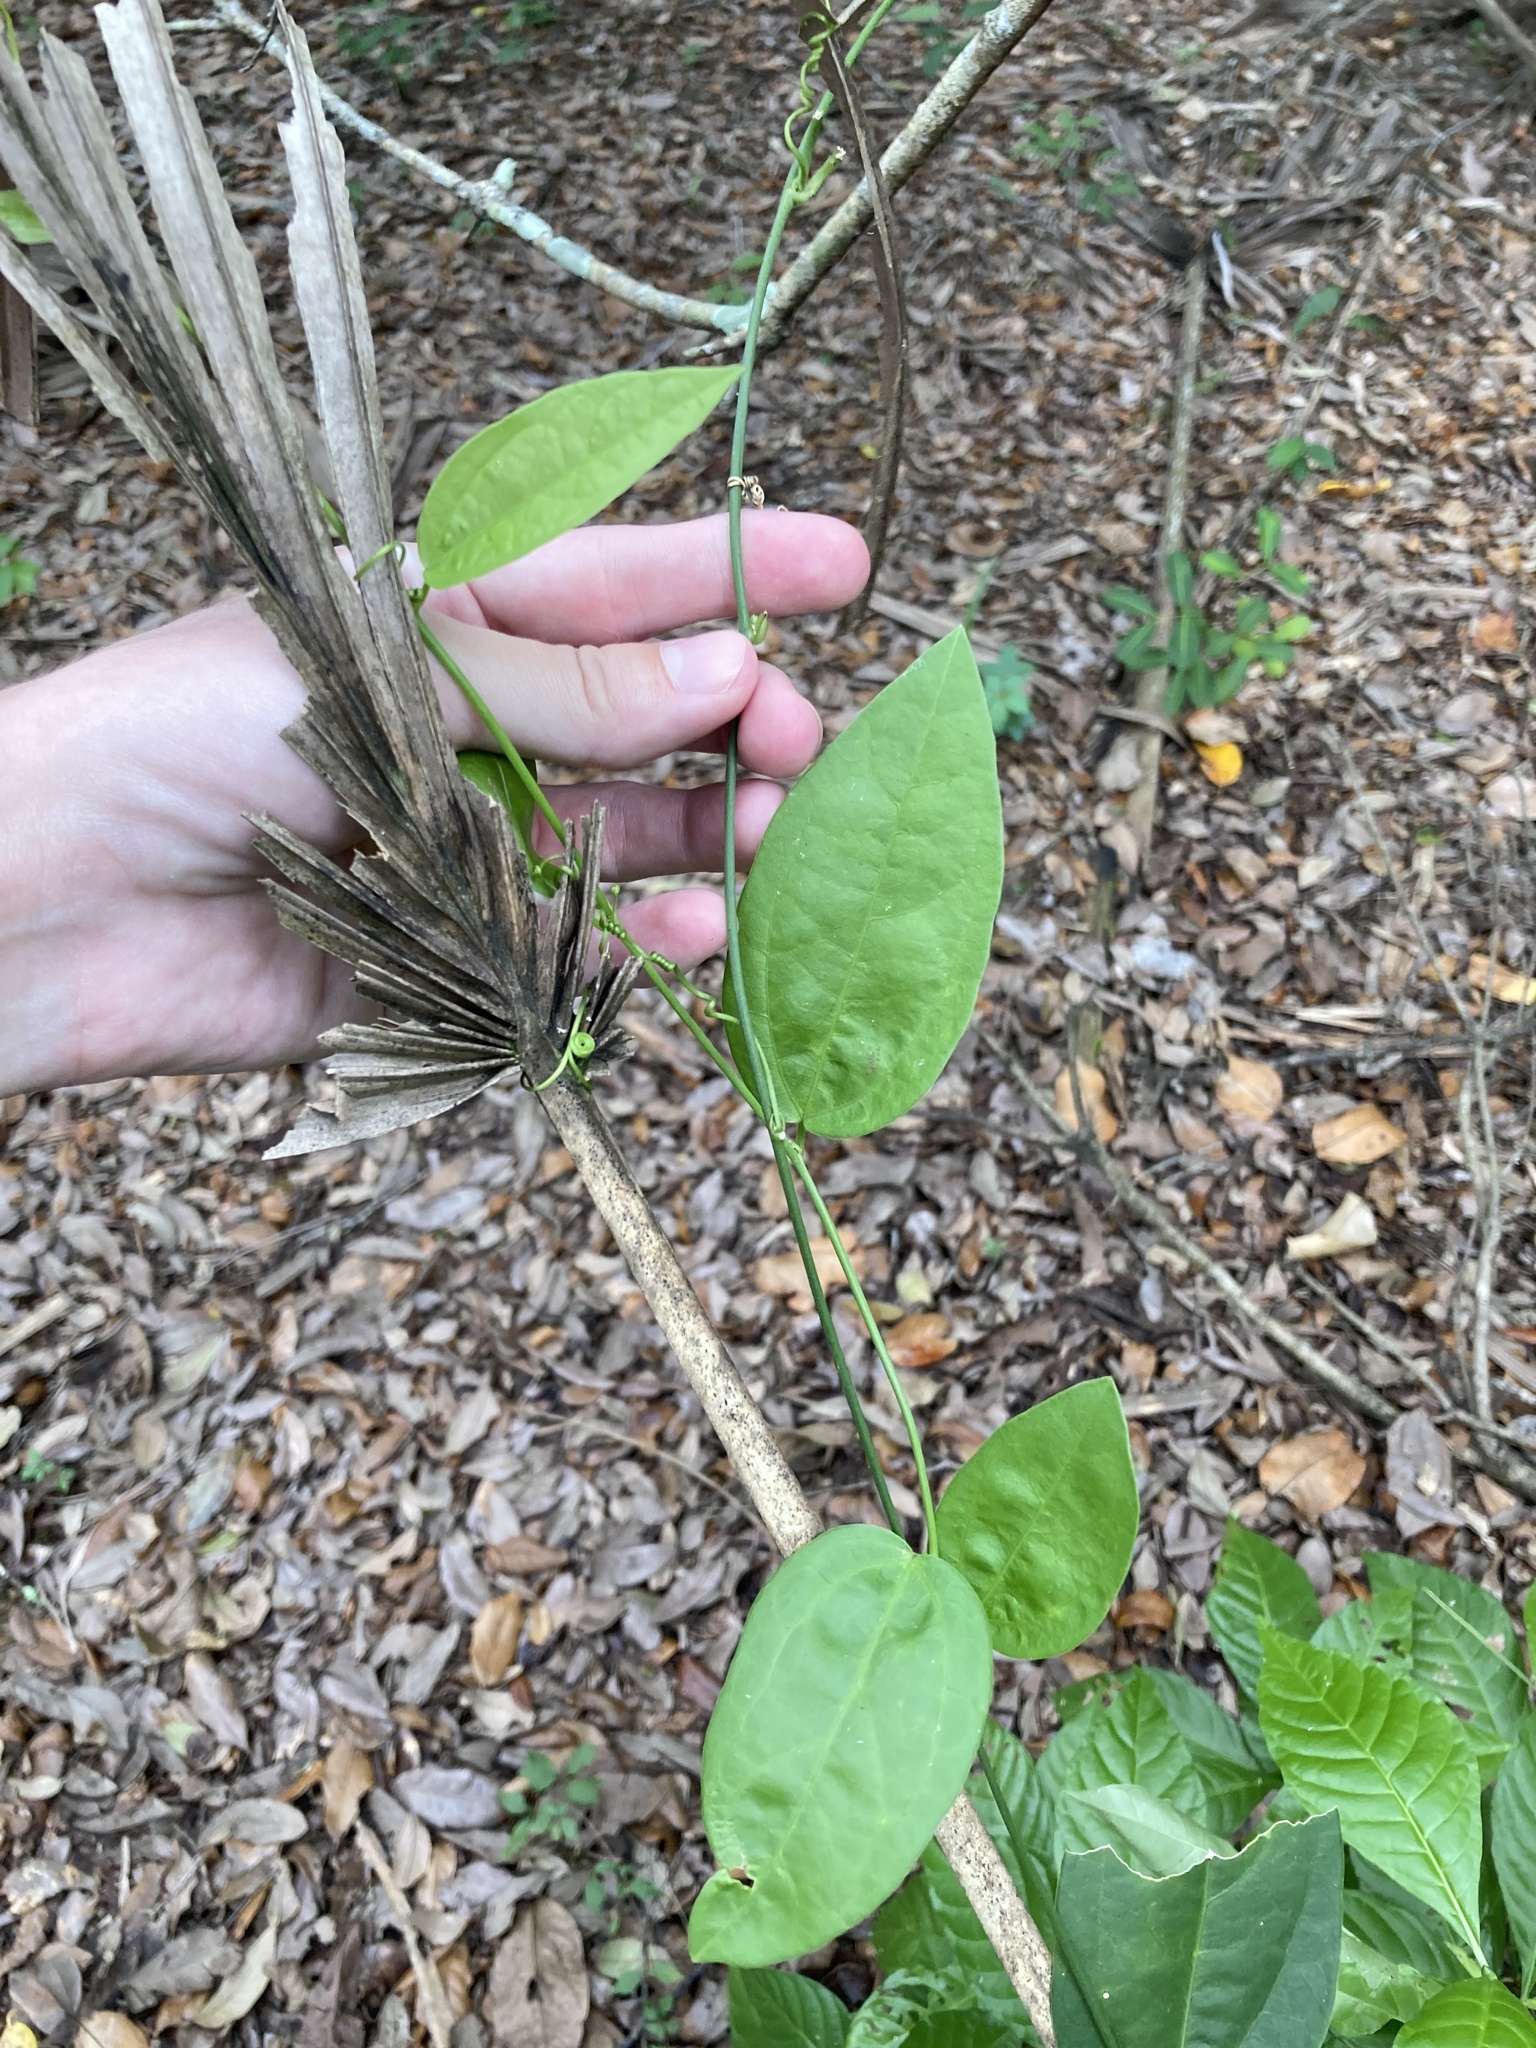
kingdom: Plantae
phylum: Tracheophyta
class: Magnoliopsida
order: Malpighiales
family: Passifloraceae
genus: Passiflora
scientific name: Passiflora pallida
